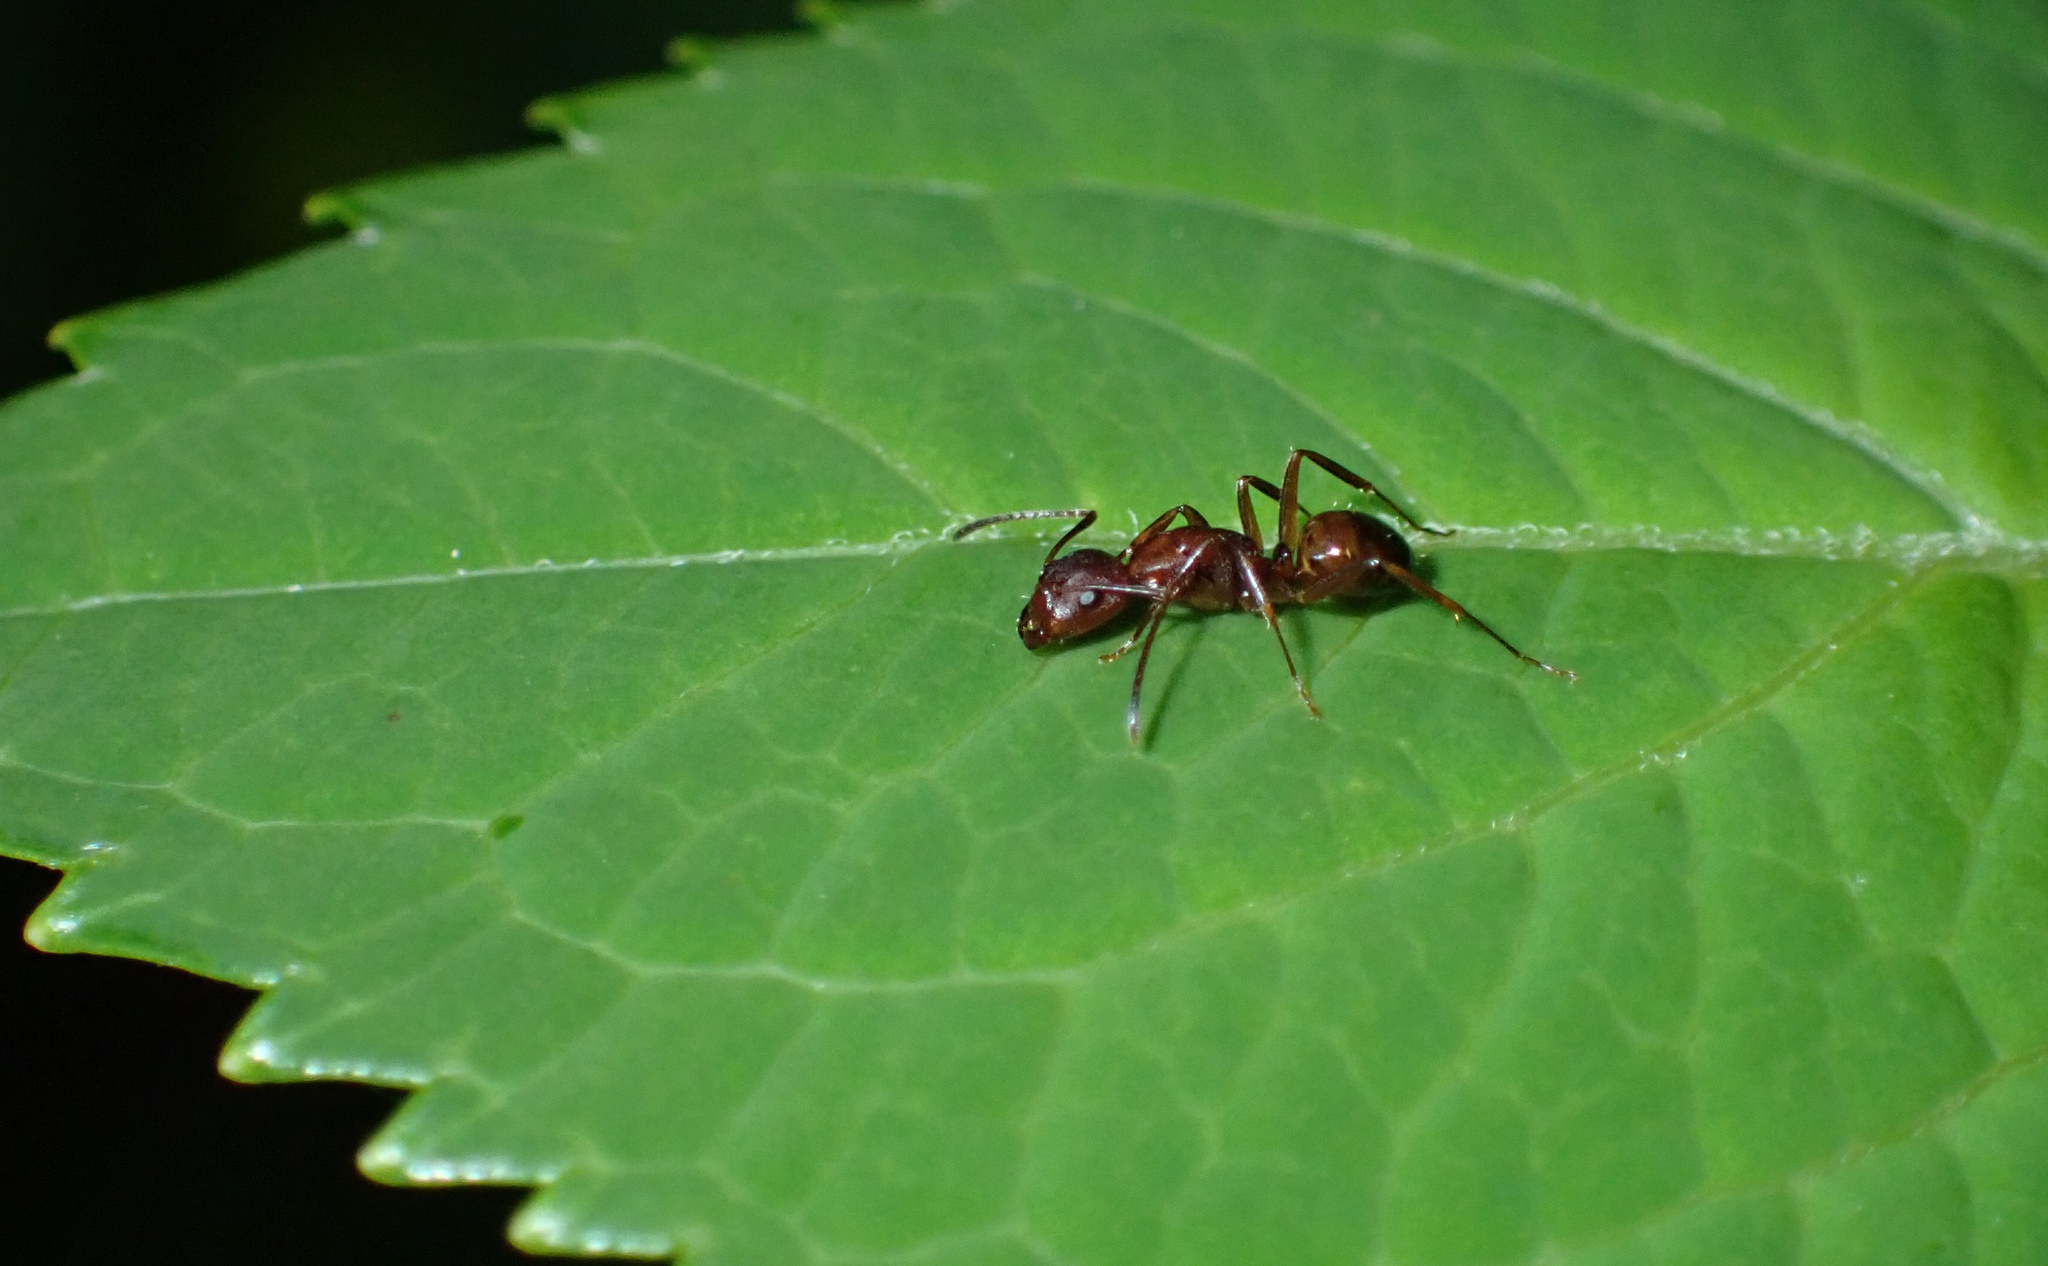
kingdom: Animalia
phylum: Arthropoda
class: Insecta
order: Hymenoptera
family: Formicidae
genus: Camponotus
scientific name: Camponotus subbarbatus
